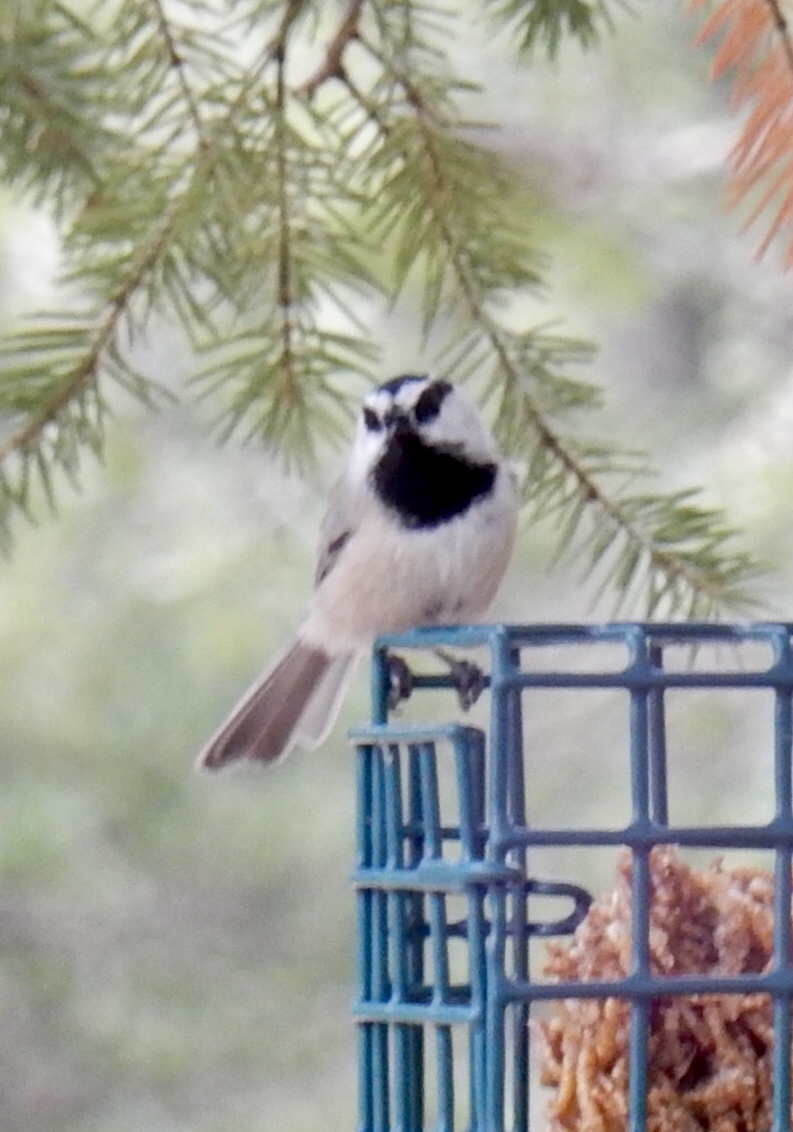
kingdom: Animalia
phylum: Chordata
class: Aves
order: Passeriformes
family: Paridae
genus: Poecile
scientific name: Poecile gambeli
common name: Mountain chickadee
